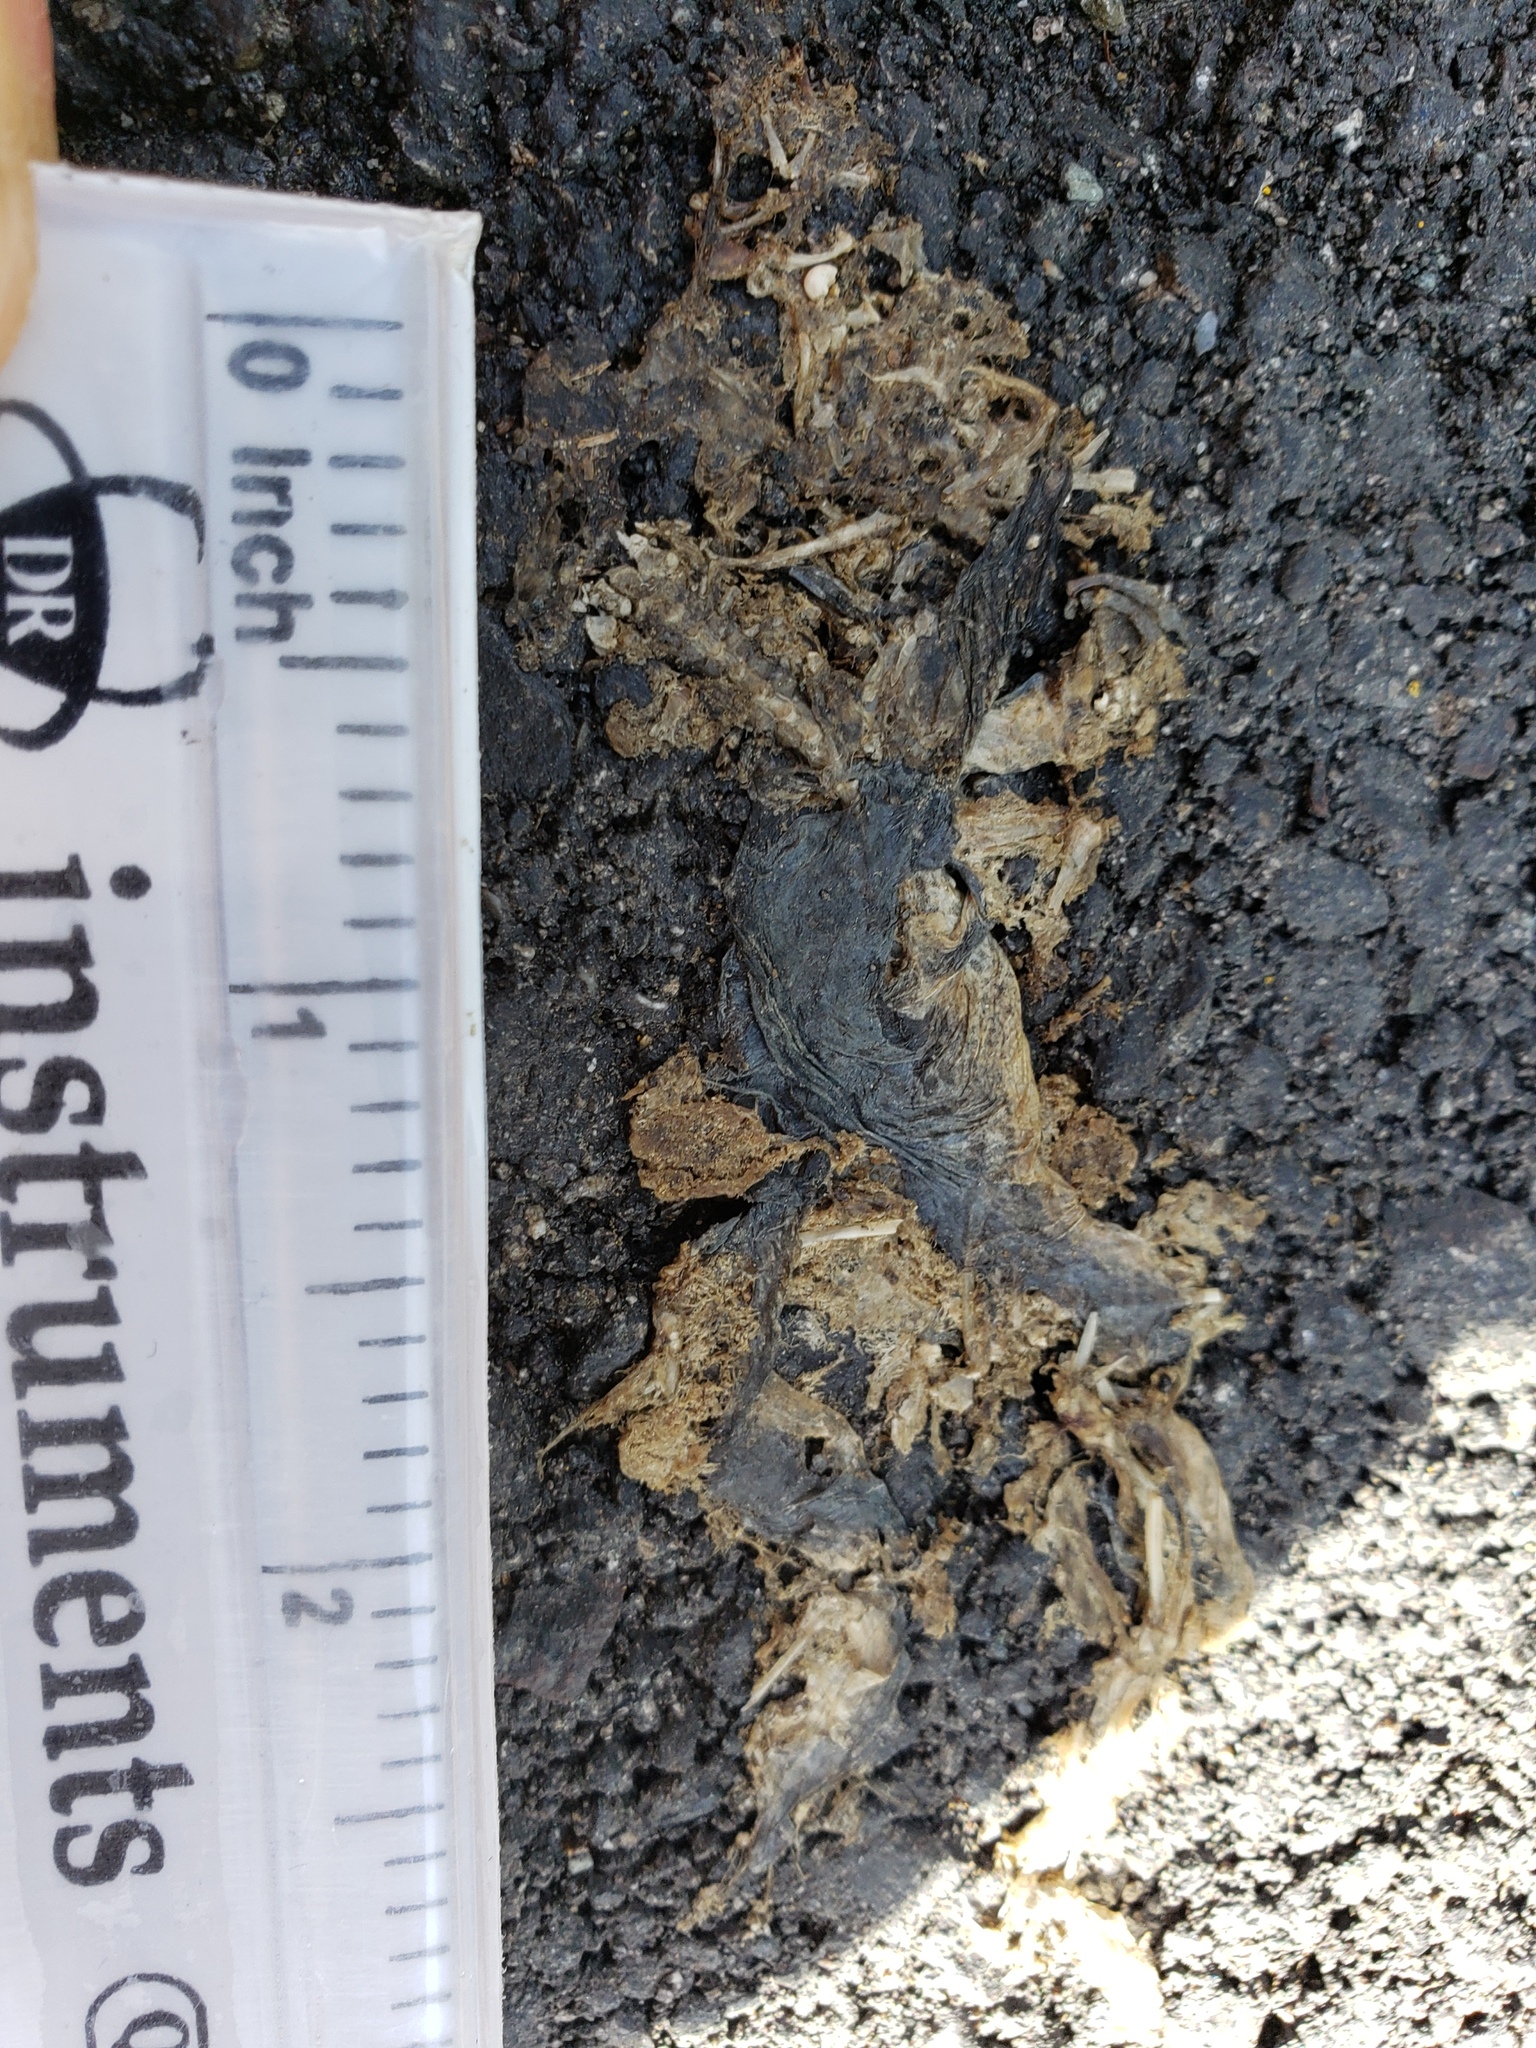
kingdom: Animalia
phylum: Chordata
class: Amphibia
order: Caudata
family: Salamandridae
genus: Taricha
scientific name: Taricha
